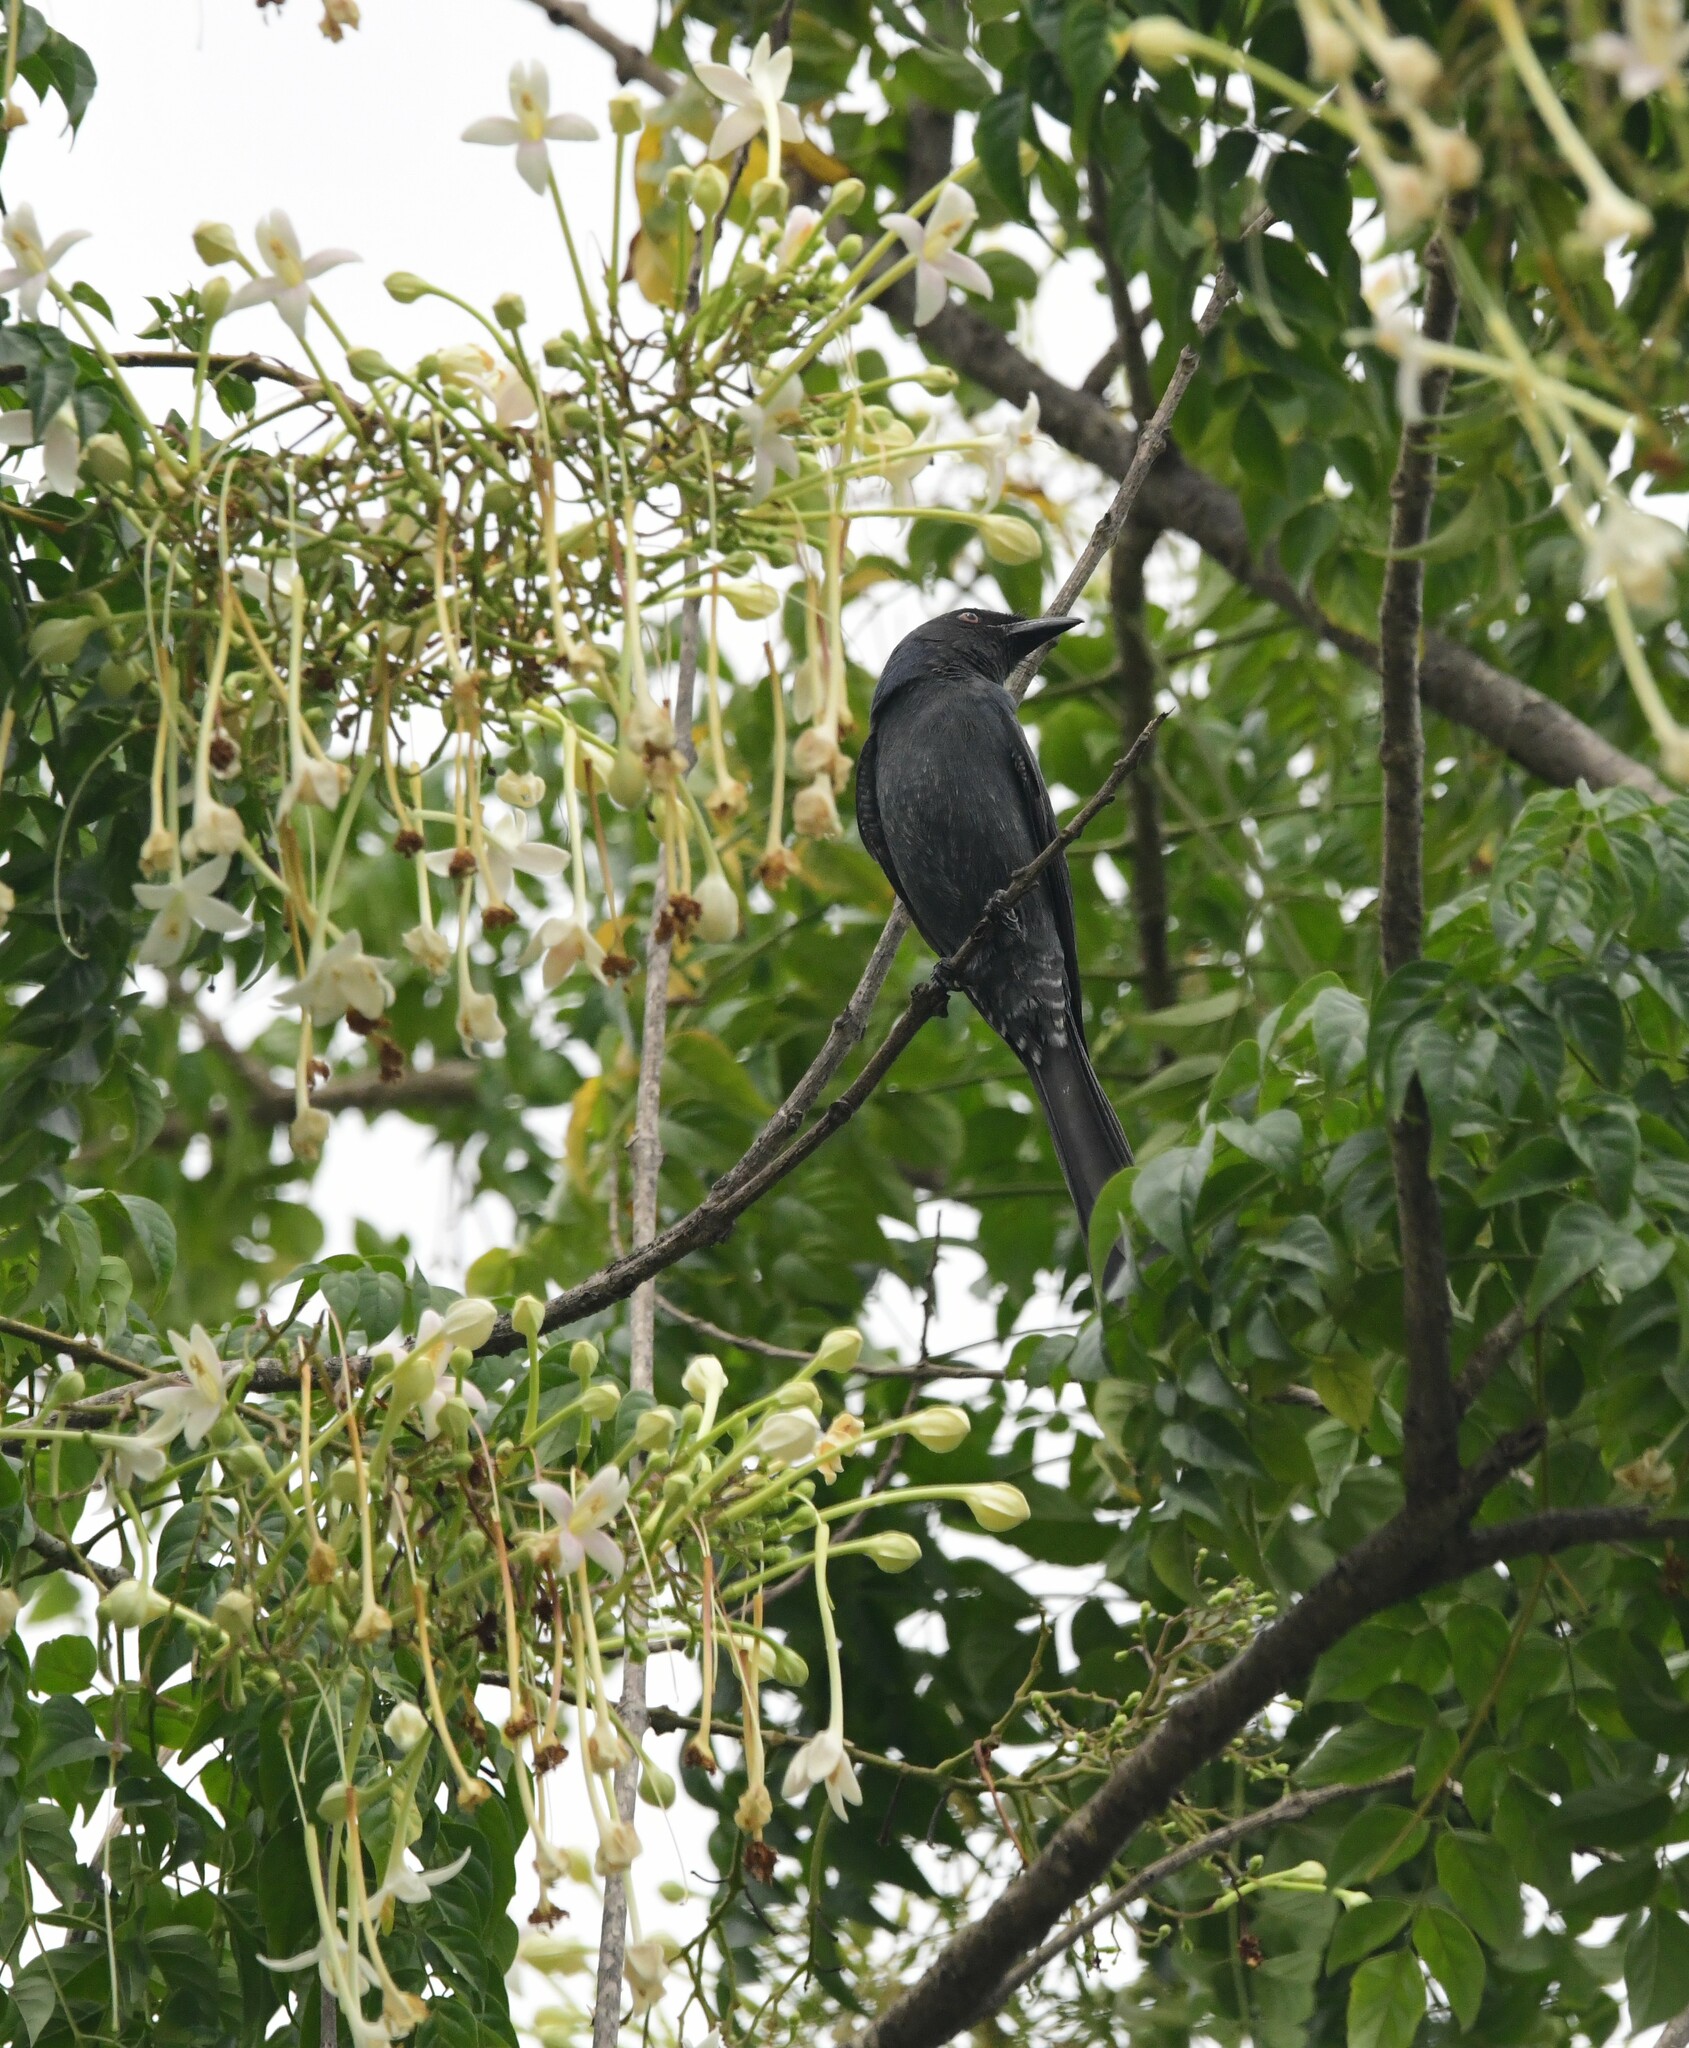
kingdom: Animalia
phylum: Chordata
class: Aves
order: Passeriformes
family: Dicruridae
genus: Dicrurus
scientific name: Dicrurus leucophaeus
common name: Ashy drongo
